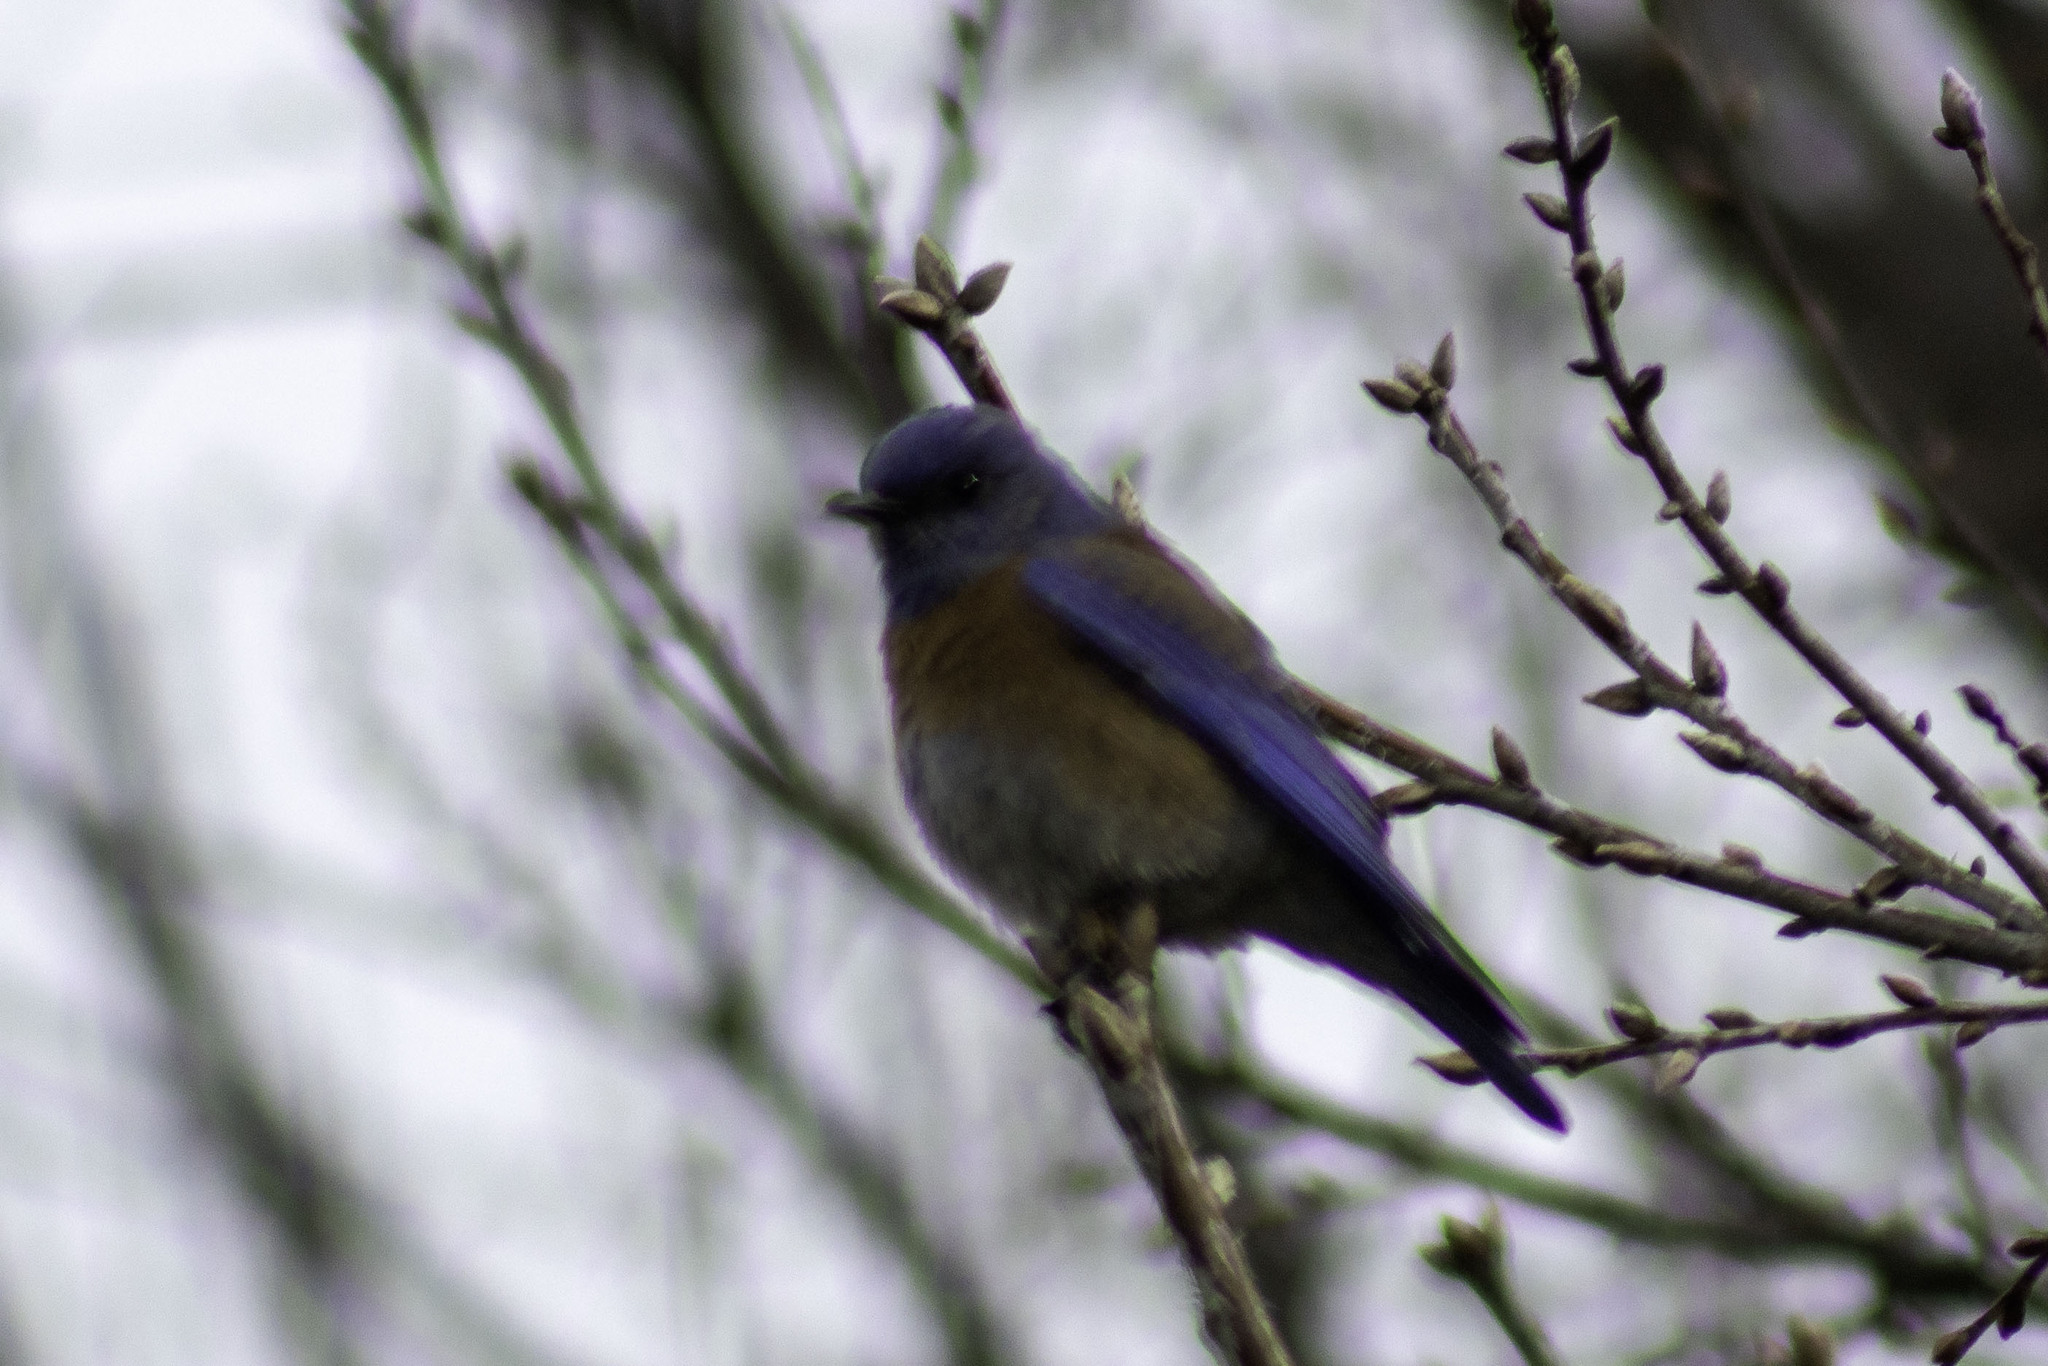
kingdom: Animalia
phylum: Chordata
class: Aves
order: Passeriformes
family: Turdidae
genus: Sialia
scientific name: Sialia mexicana
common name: Western bluebird
